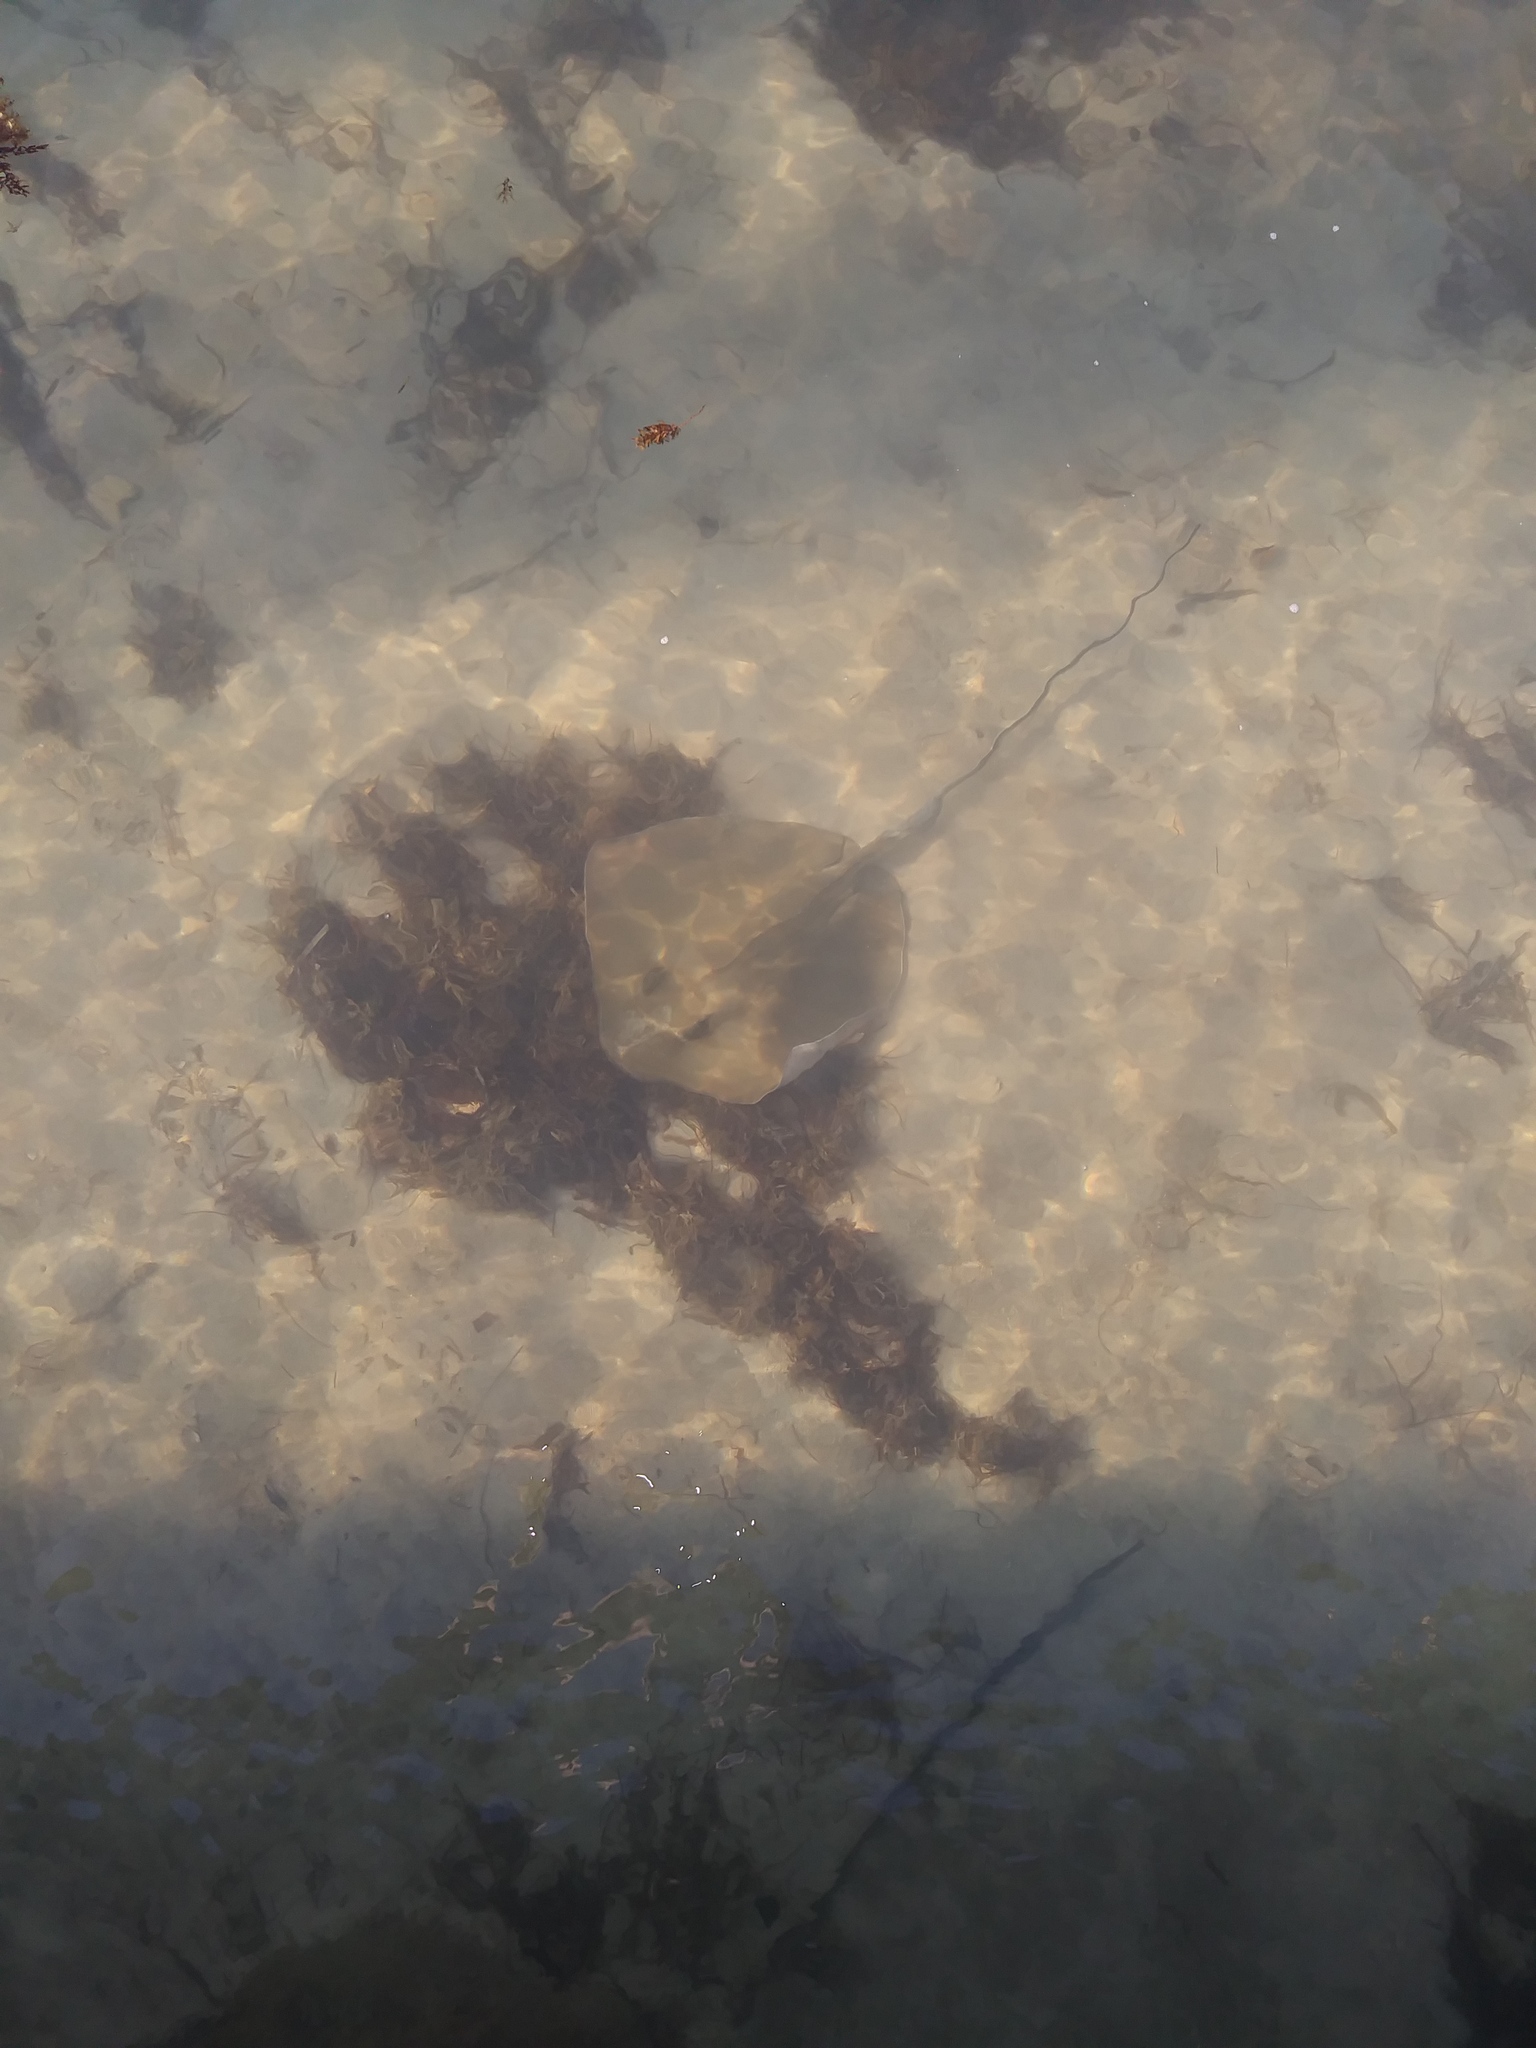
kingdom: Animalia
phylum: Chordata
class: Elasmobranchii
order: Myliobatiformes
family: Dasyatidae
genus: Hypanus
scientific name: Hypanus americanus
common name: Southern stingray
